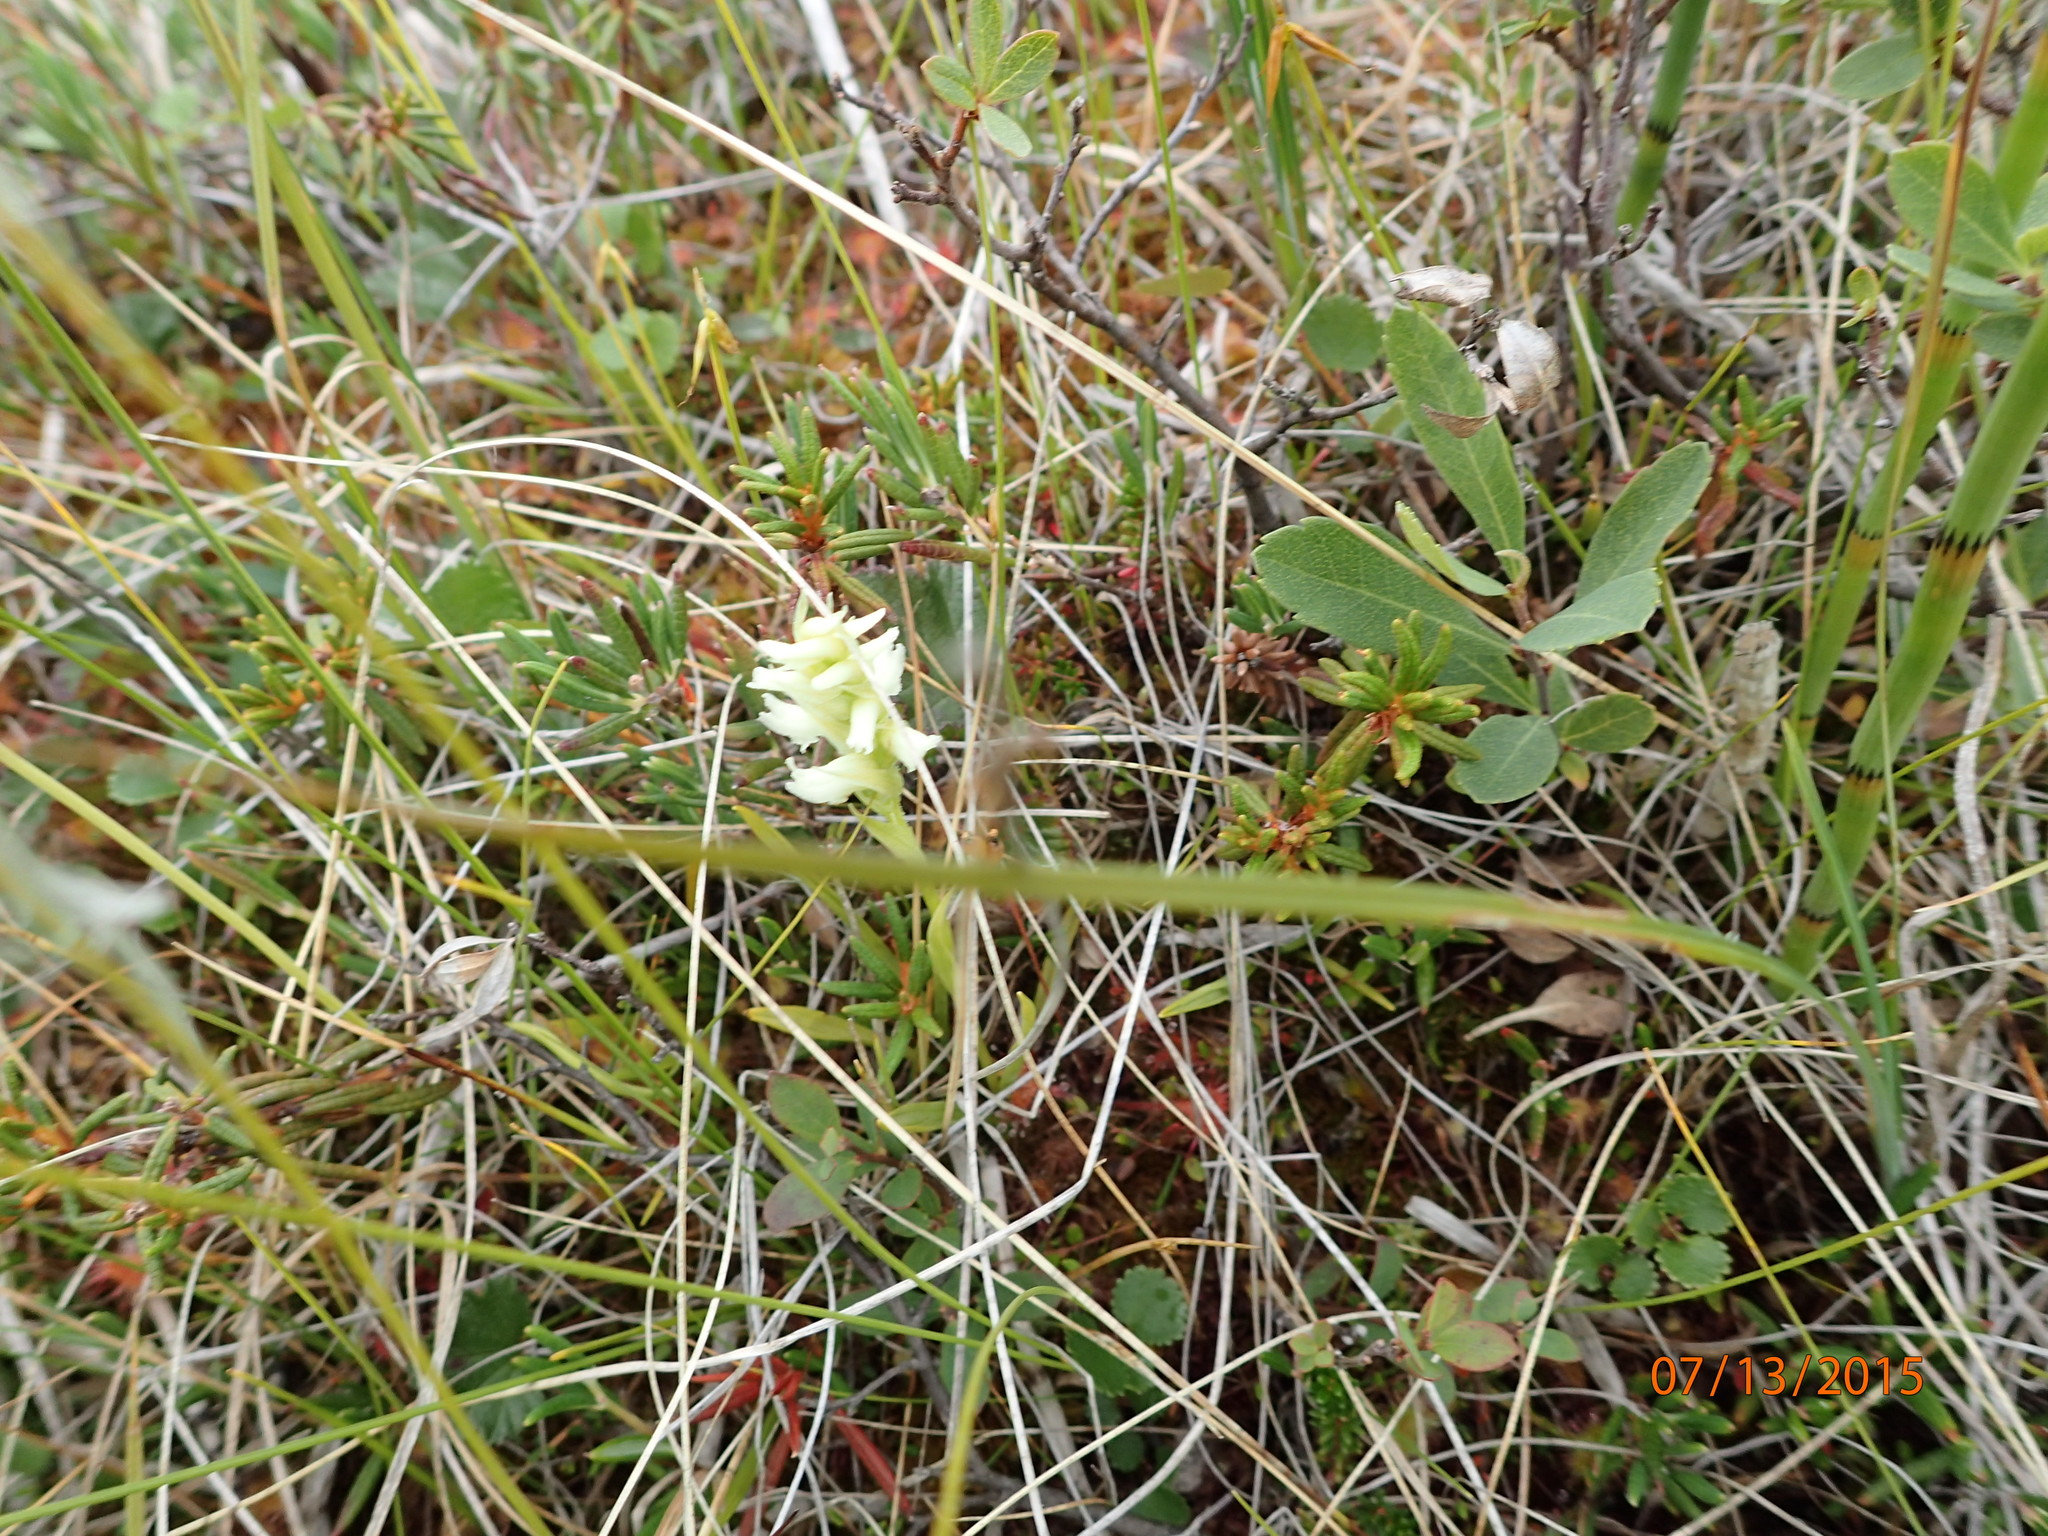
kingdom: Plantae
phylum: Tracheophyta
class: Liliopsida
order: Asparagales
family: Orchidaceae
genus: Spiranthes
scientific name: Spiranthes romanzoffiana
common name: Irish lady's-tresses
